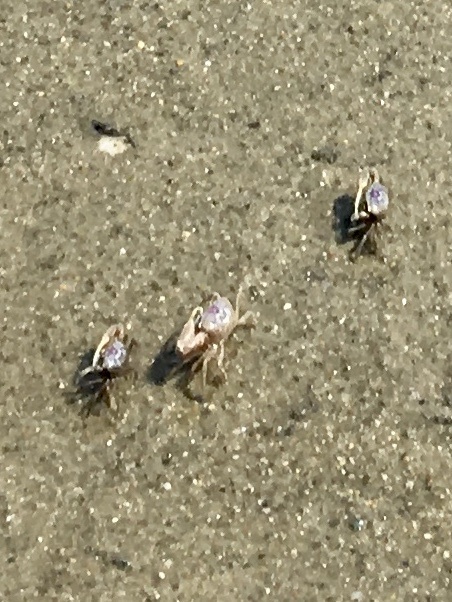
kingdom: Animalia
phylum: Arthropoda
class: Malacostraca
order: Decapoda
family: Ocypodidae
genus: Leptuca
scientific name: Leptuca pugilator
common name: Atlantic sand fiddler crab
